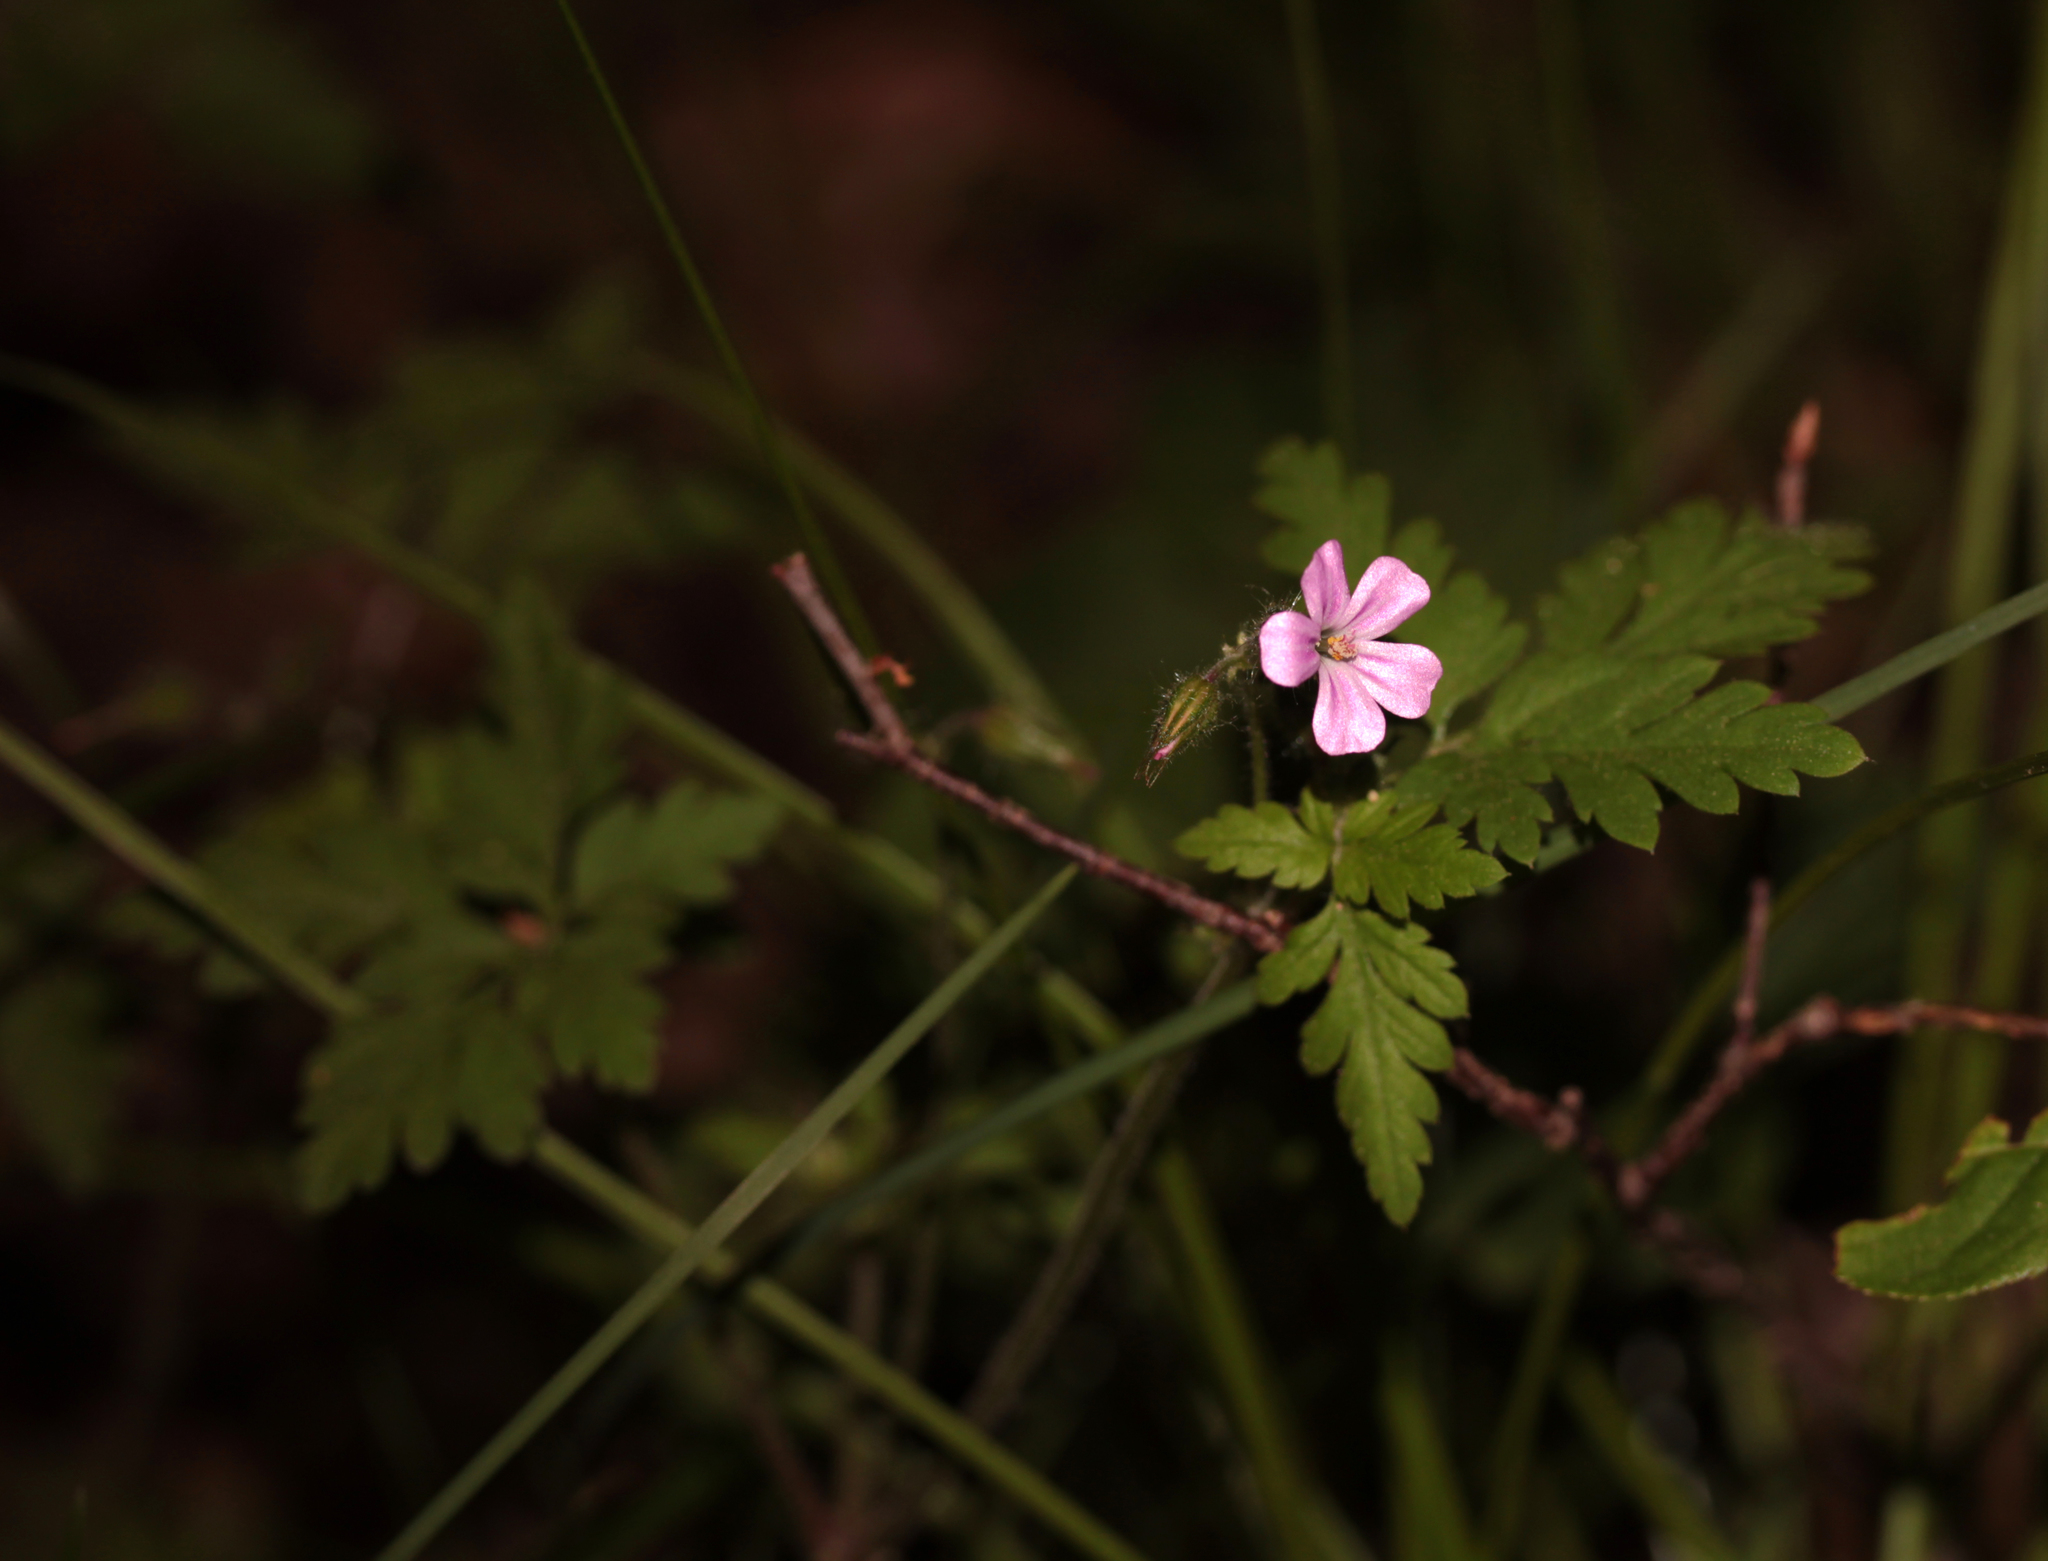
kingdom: Plantae
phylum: Tracheophyta
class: Magnoliopsida
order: Geraniales
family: Geraniaceae
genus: Geranium
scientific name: Geranium robertianum
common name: Herb-robert
